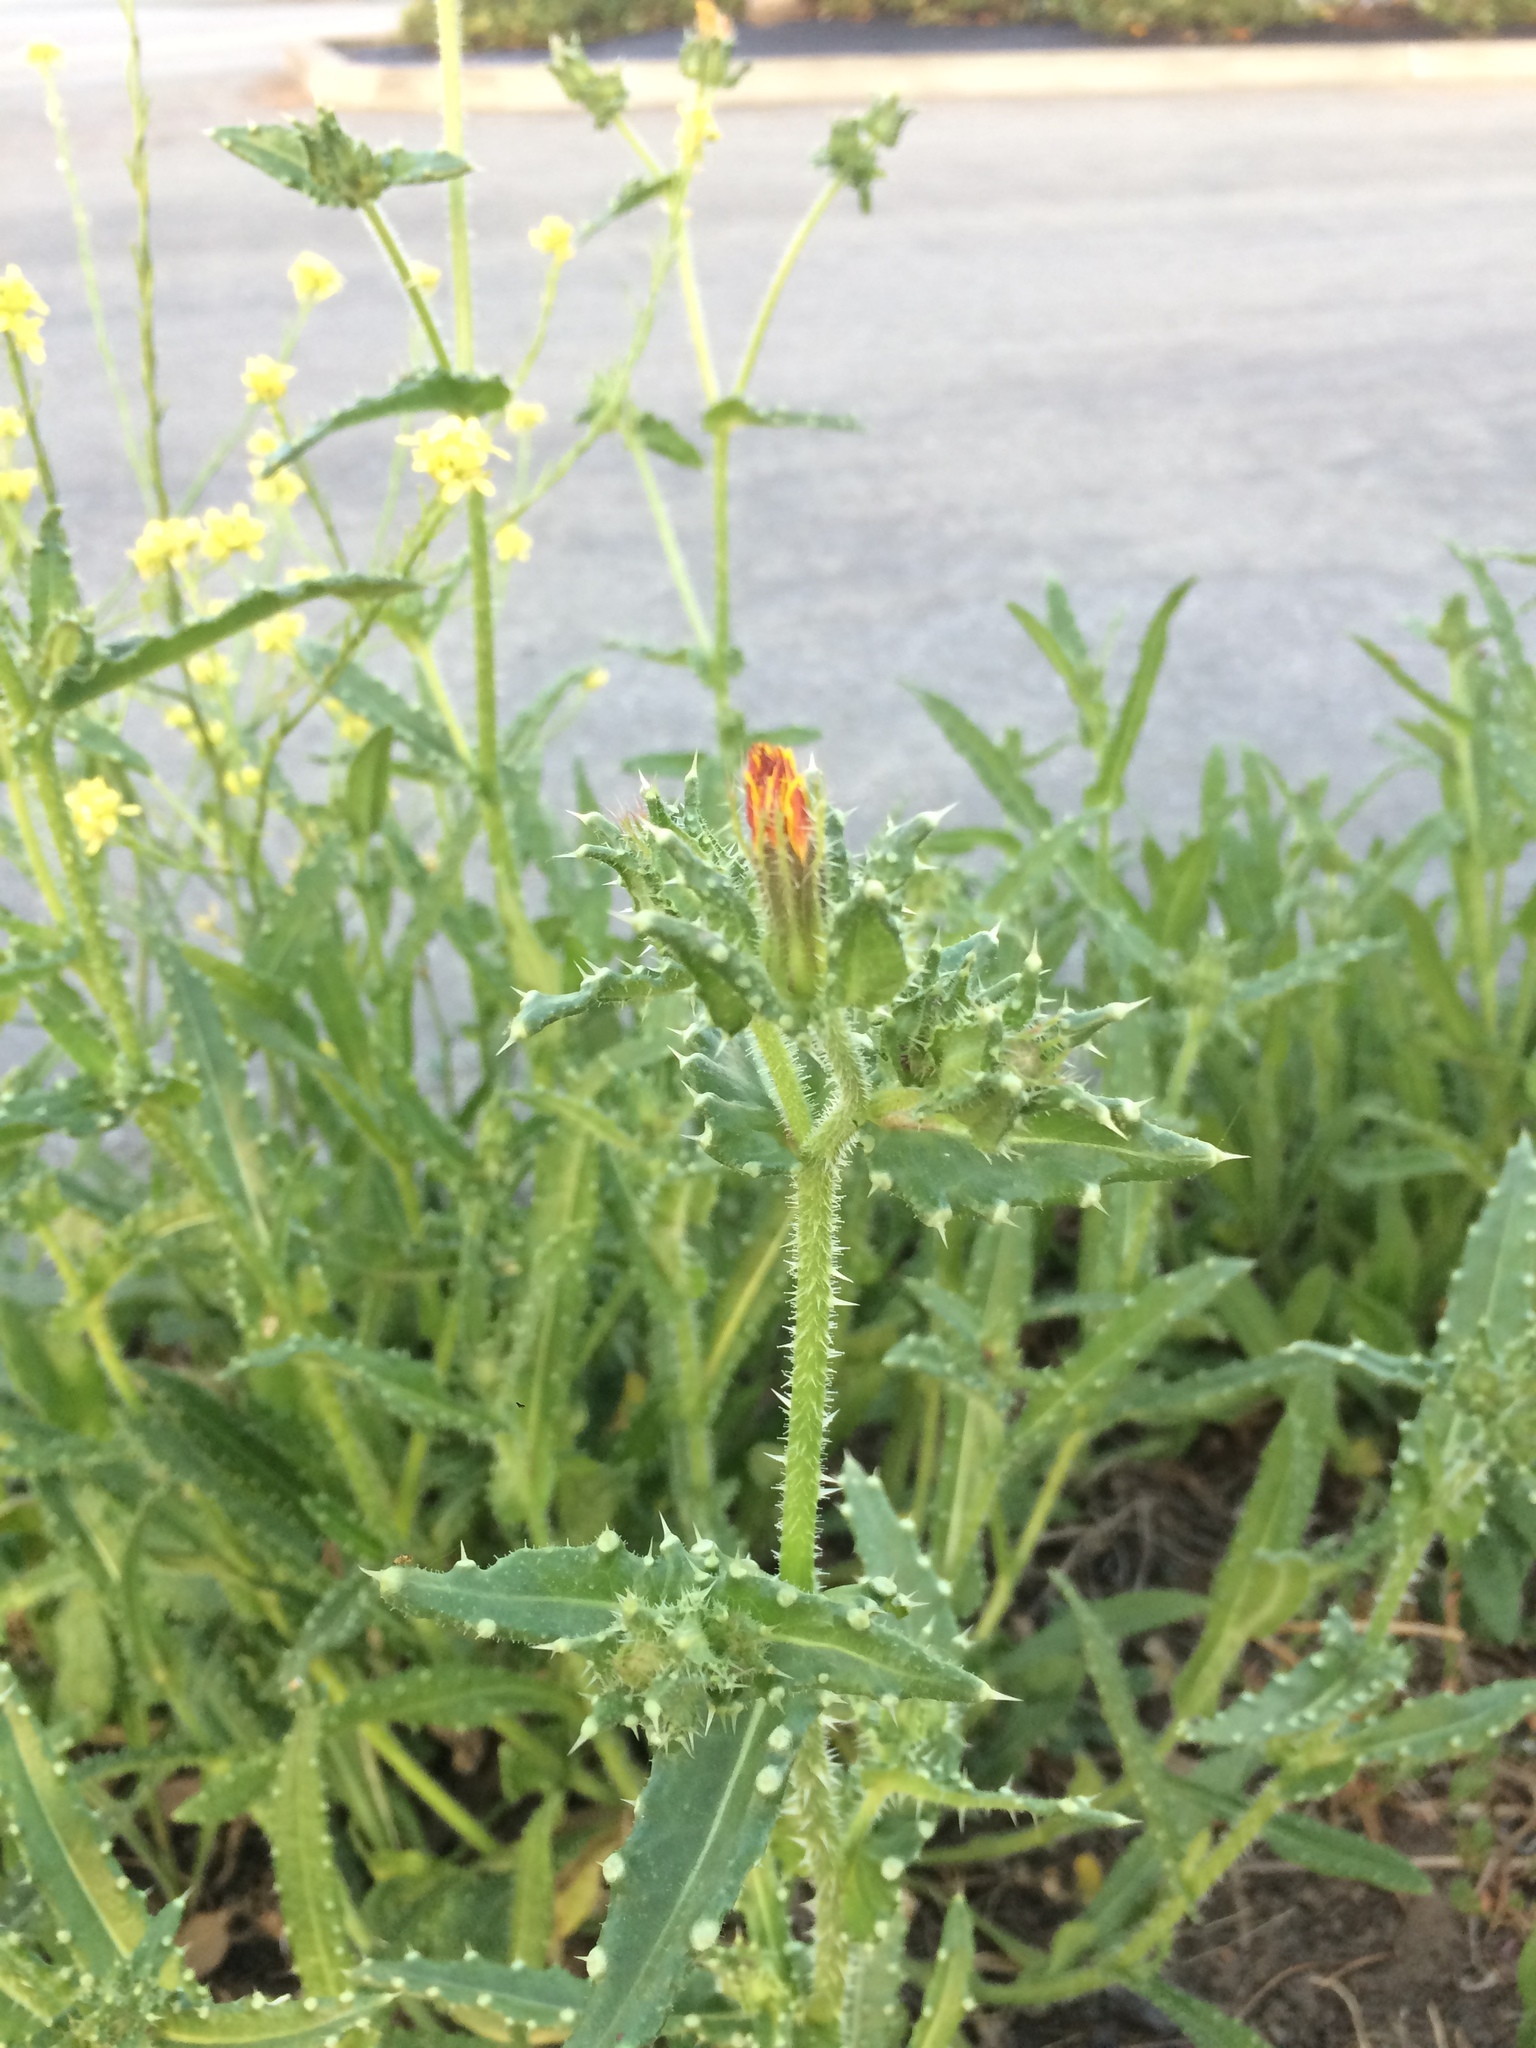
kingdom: Plantae
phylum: Tracheophyta
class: Magnoliopsida
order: Asterales
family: Asteraceae
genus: Helminthotheca
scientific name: Helminthotheca echioides
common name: Ox-tongue
